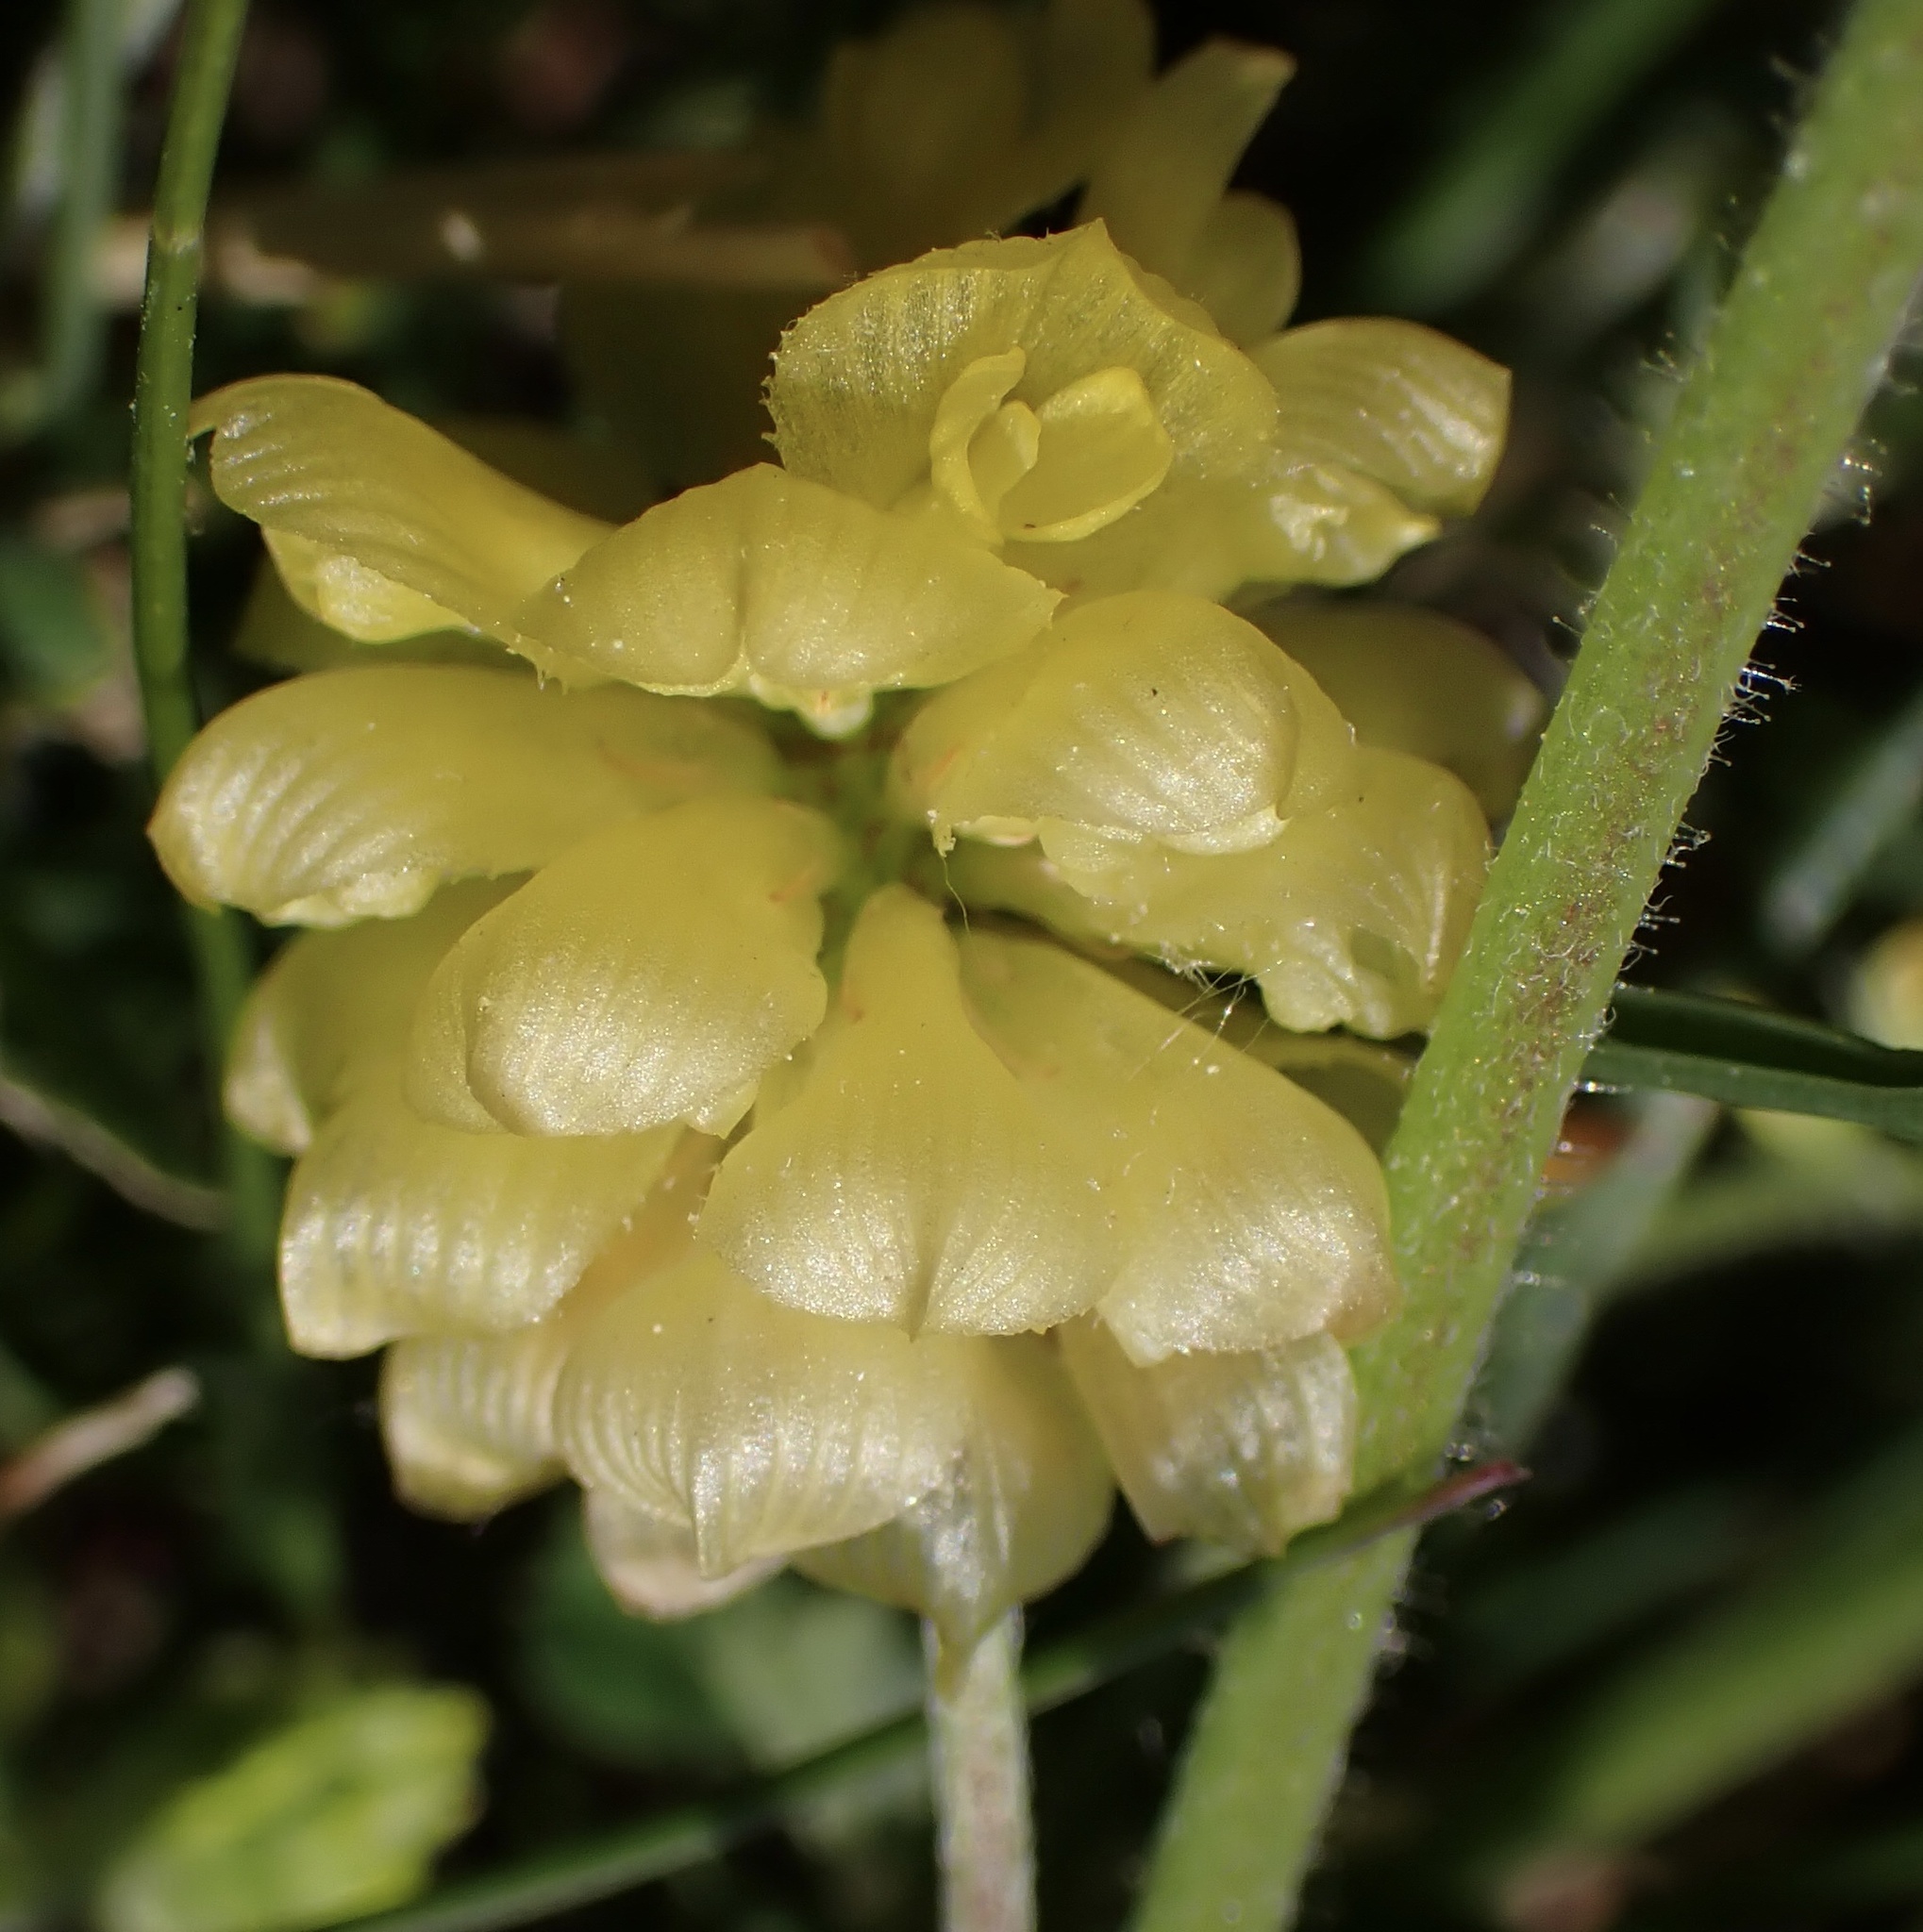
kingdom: Plantae
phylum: Tracheophyta
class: Magnoliopsida
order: Fabales
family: Fabaceae
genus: Trifolium
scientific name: Trifolium campestre
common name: Field clover
